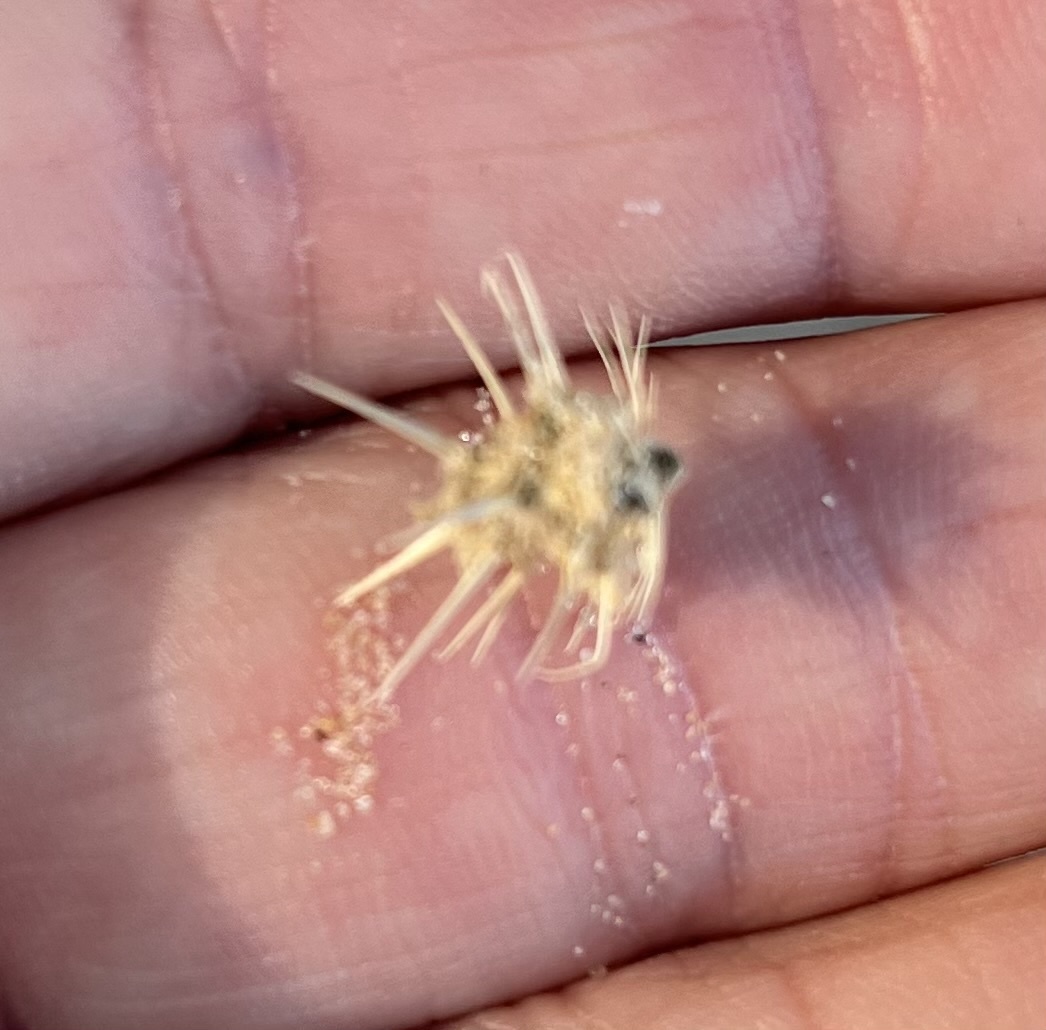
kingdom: Plantae
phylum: Tracheophyta
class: Liliopsida
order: Poales
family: Poaceae
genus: Cenchrus
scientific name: Cenchrus
